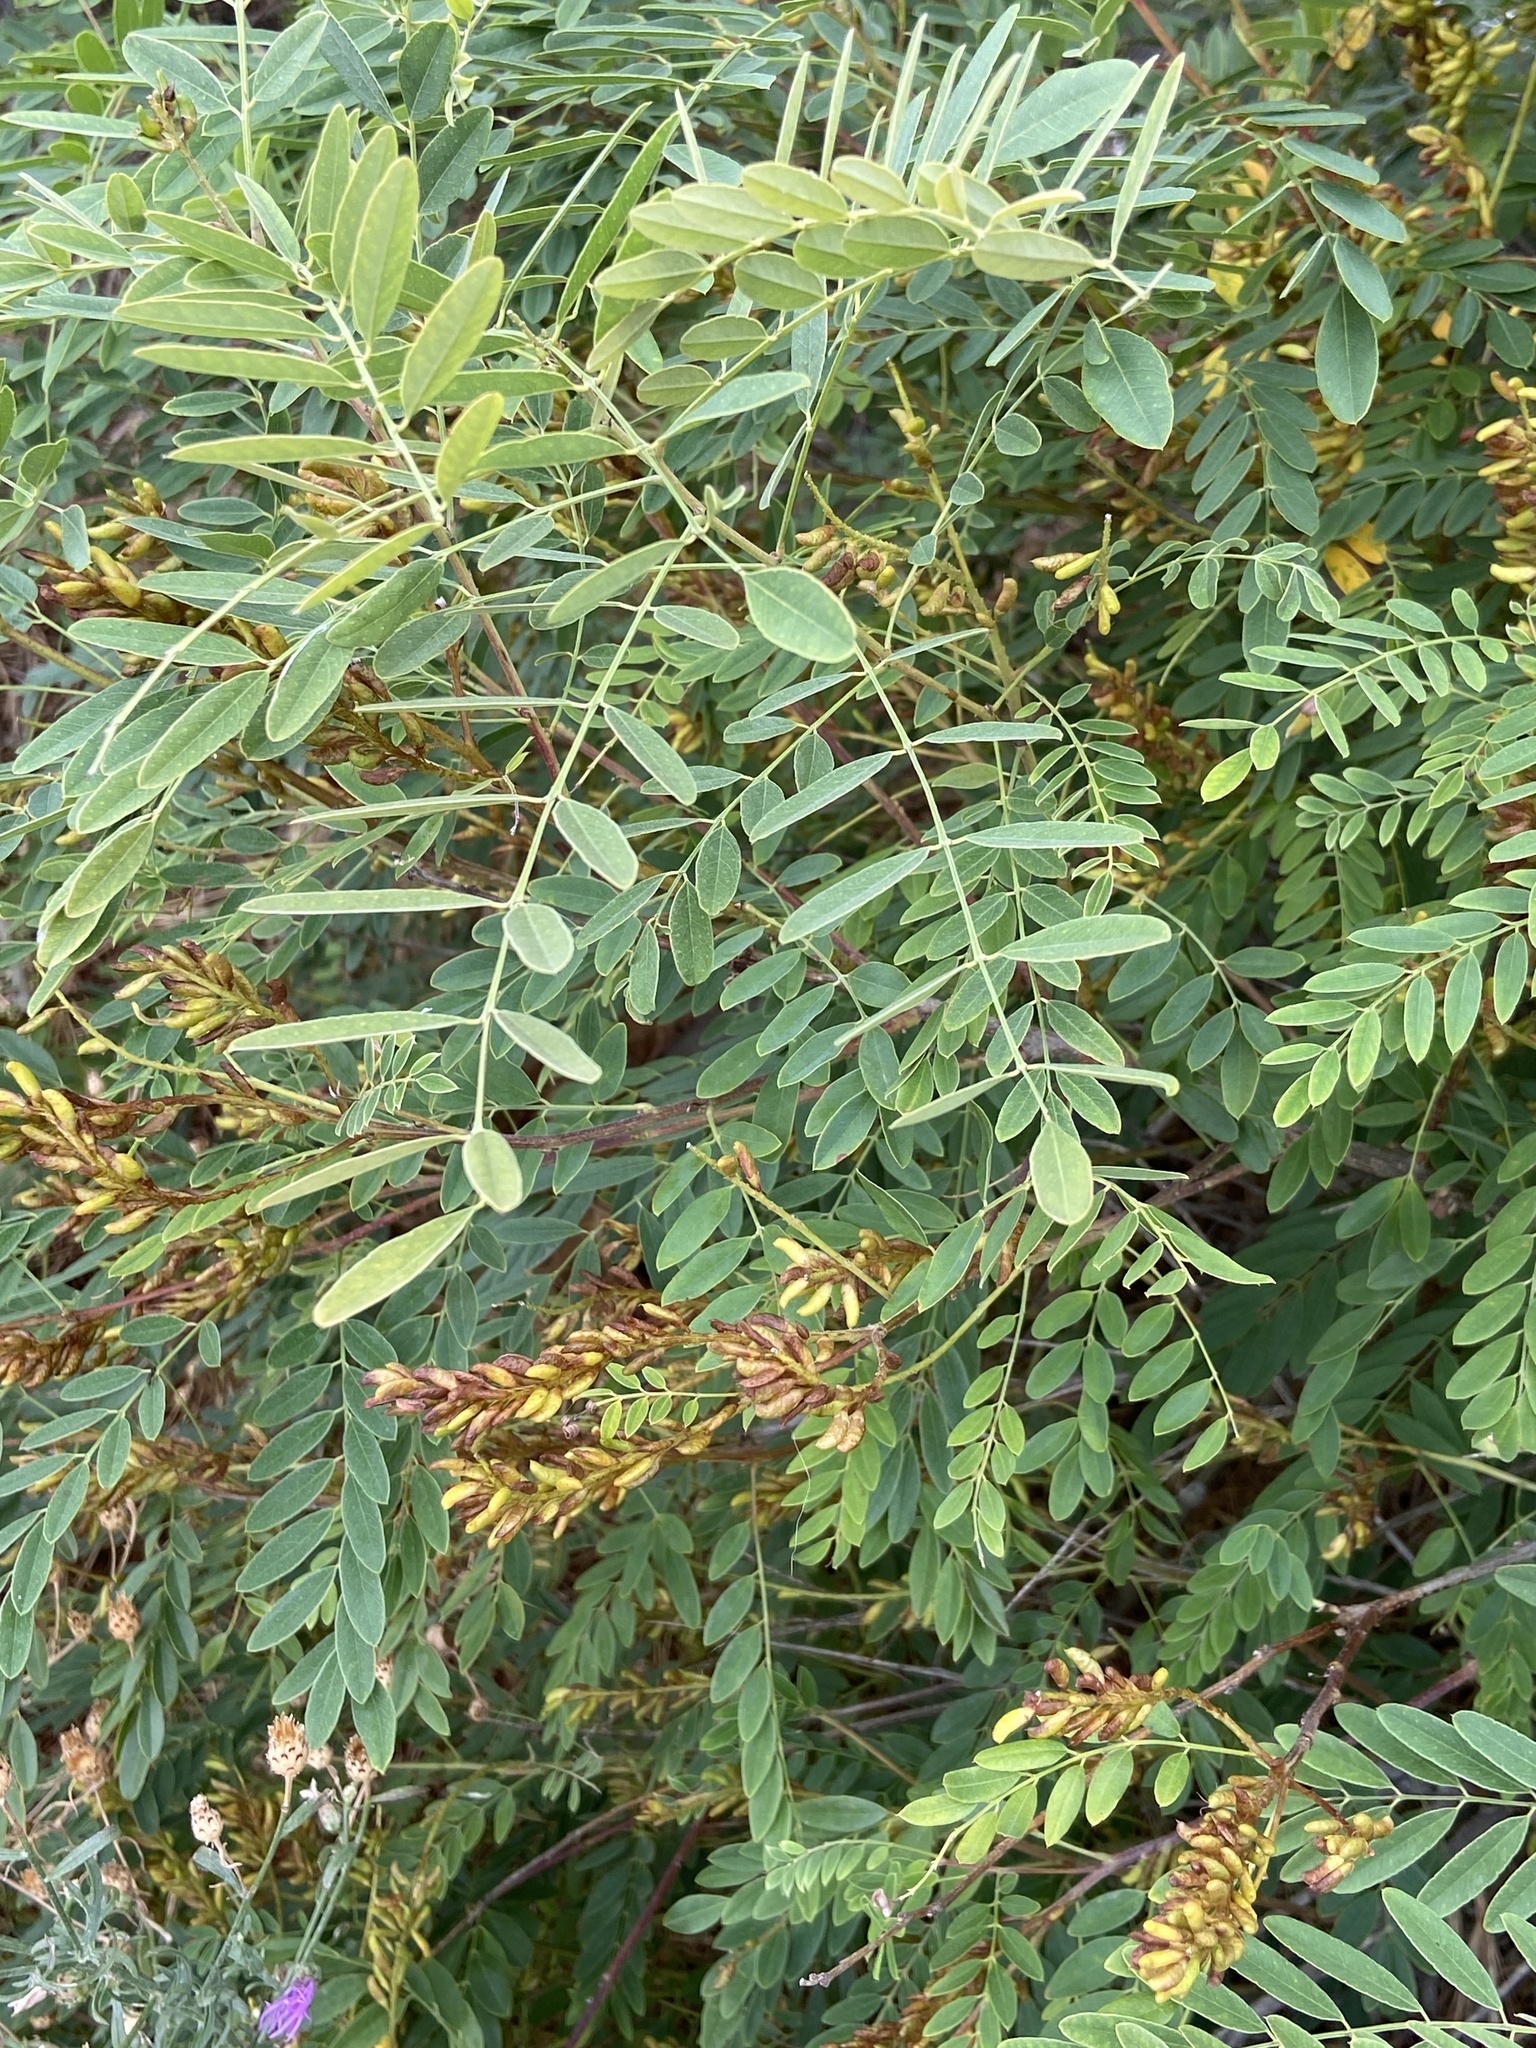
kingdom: Plantae
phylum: Tracheophyta
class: Magnoliopsida
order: Fabales
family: Fabaceae
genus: Amorpha
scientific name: Amorpha fruticosa
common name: False indigo
